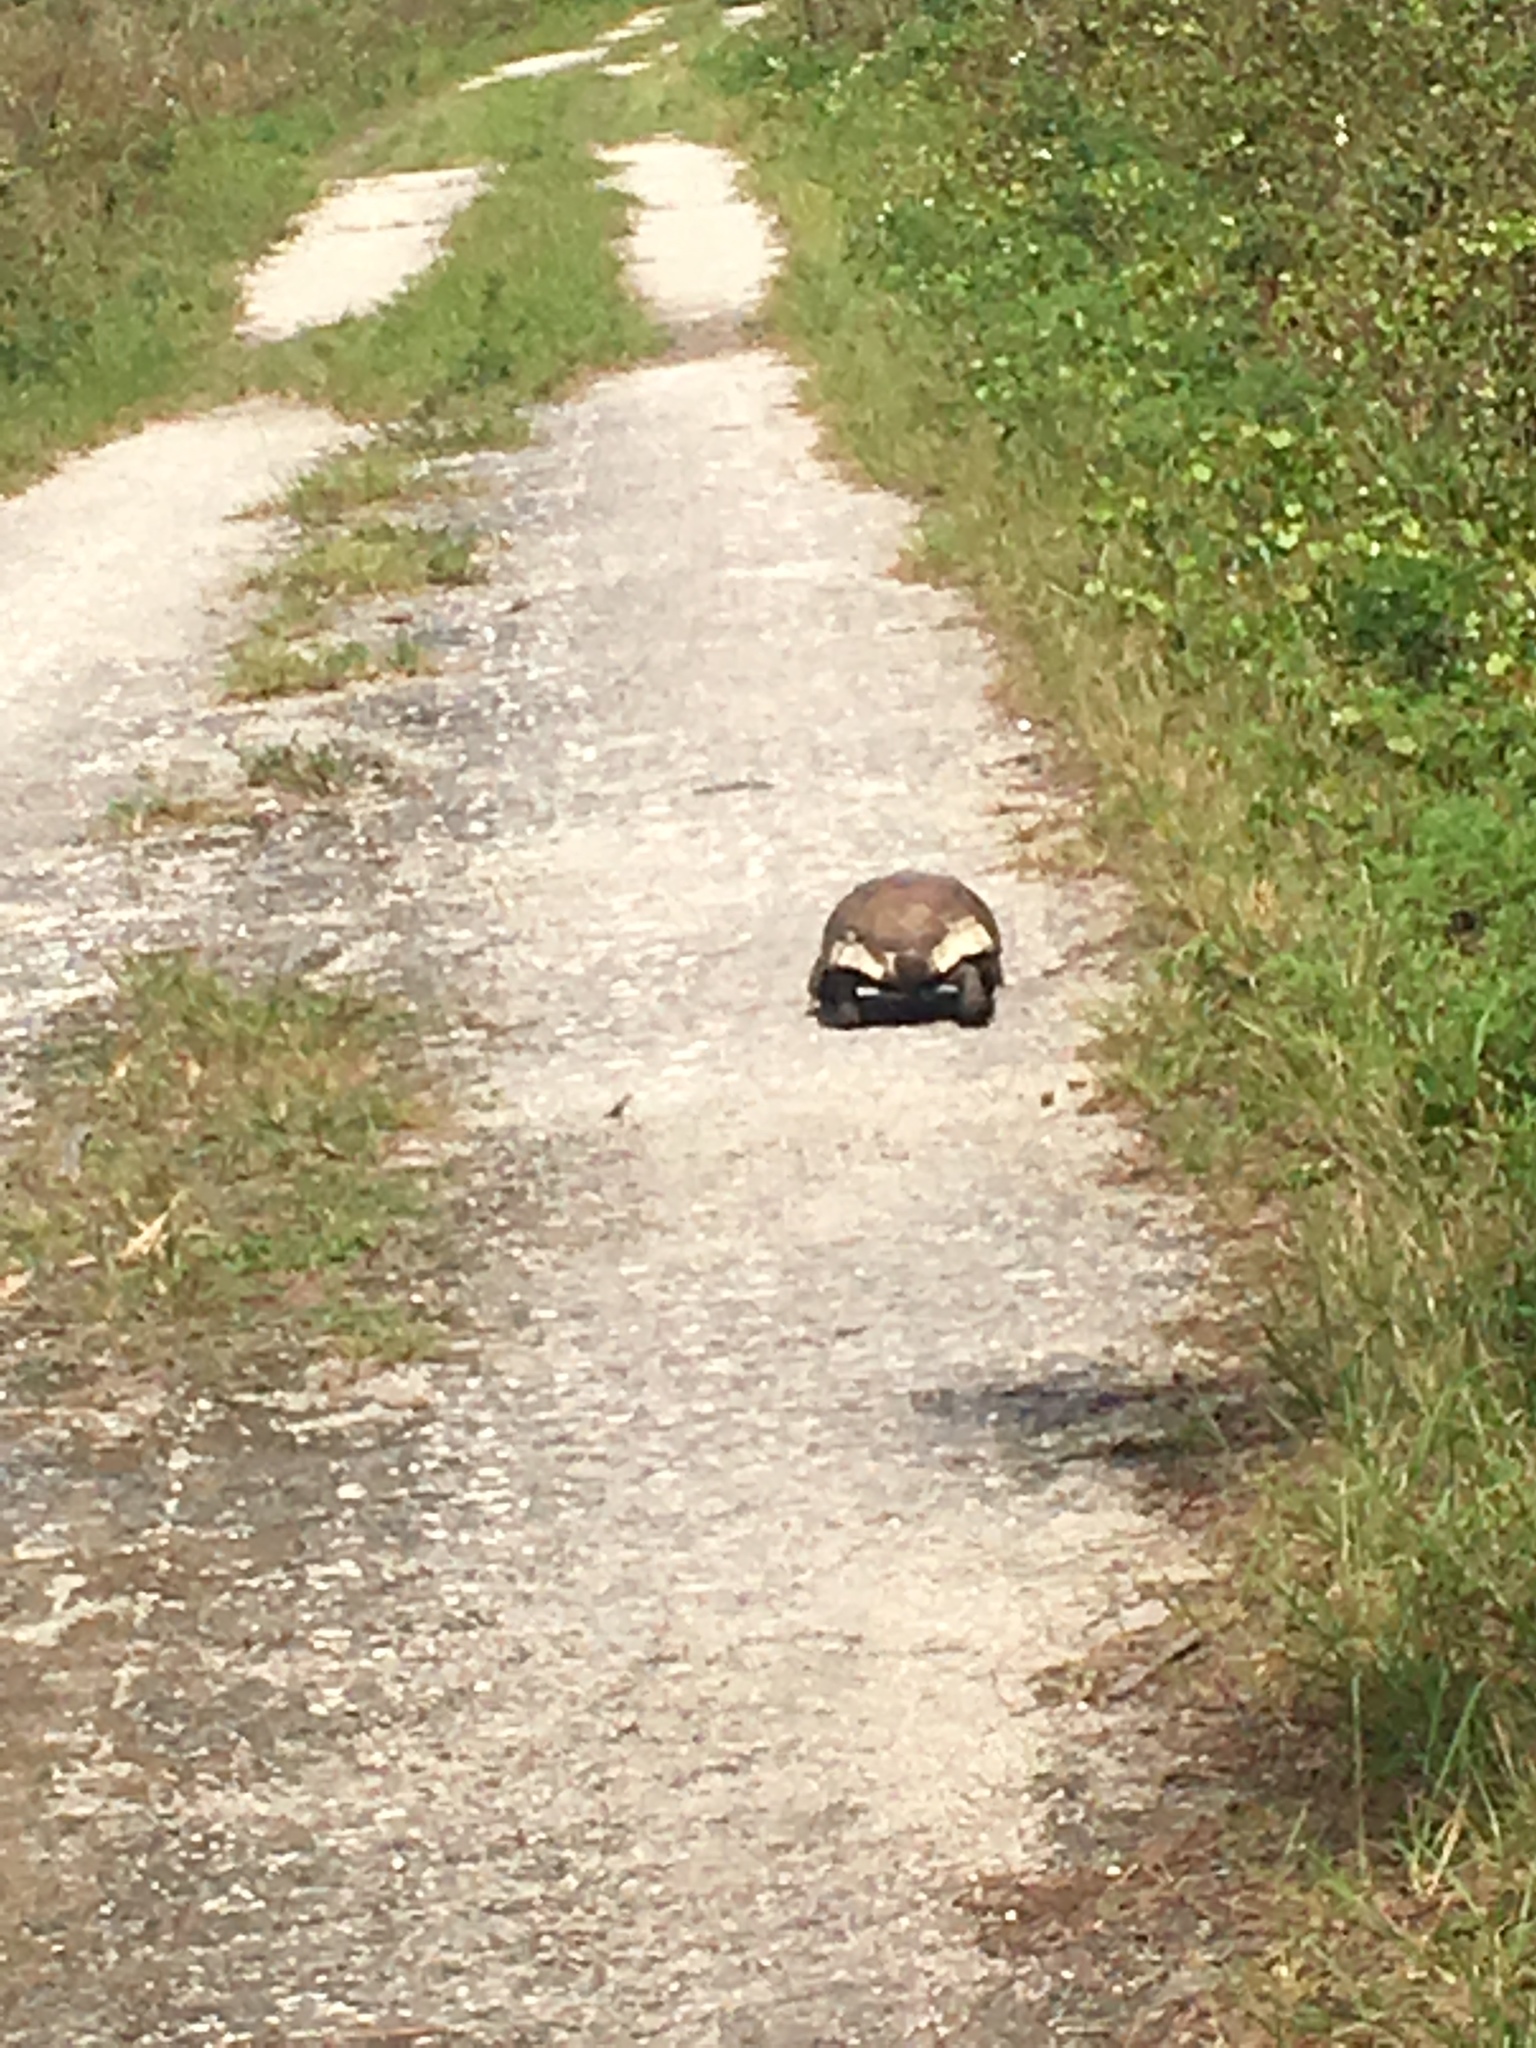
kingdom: Animalia
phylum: Chordata
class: Testudines
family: Testudinidae
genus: Gopherus
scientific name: Gopherus polyphemus
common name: Florida gopher tortoise
